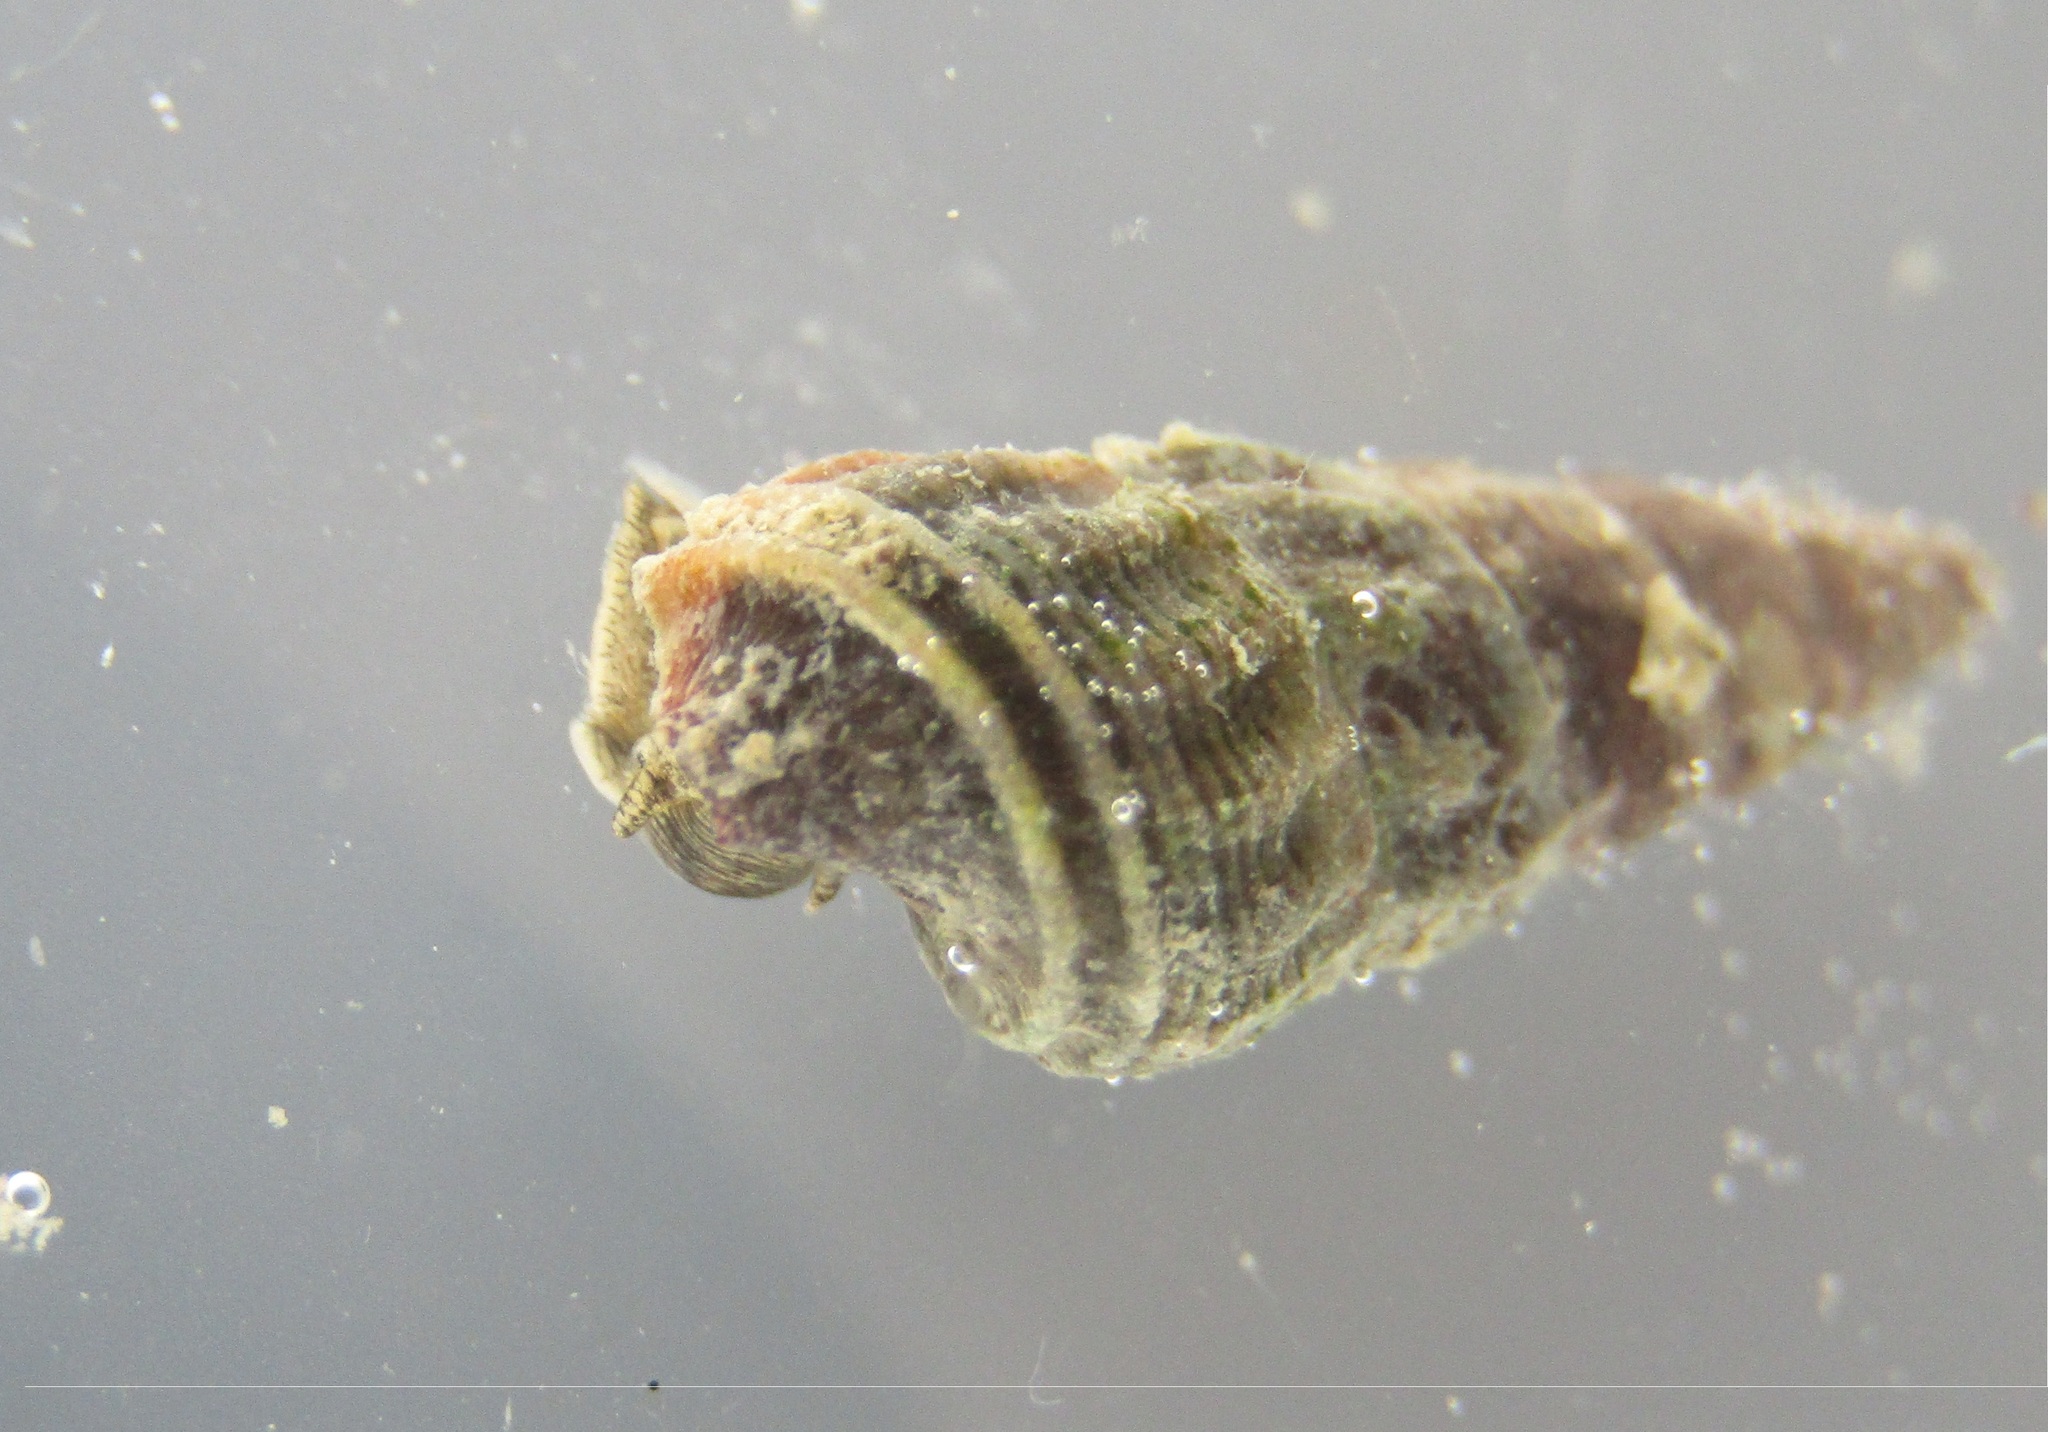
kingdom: Animalia
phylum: Mollusca
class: Gastropoda
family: Batillariidae
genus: Zeacumantus
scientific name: Zeacumantus lutulentus
